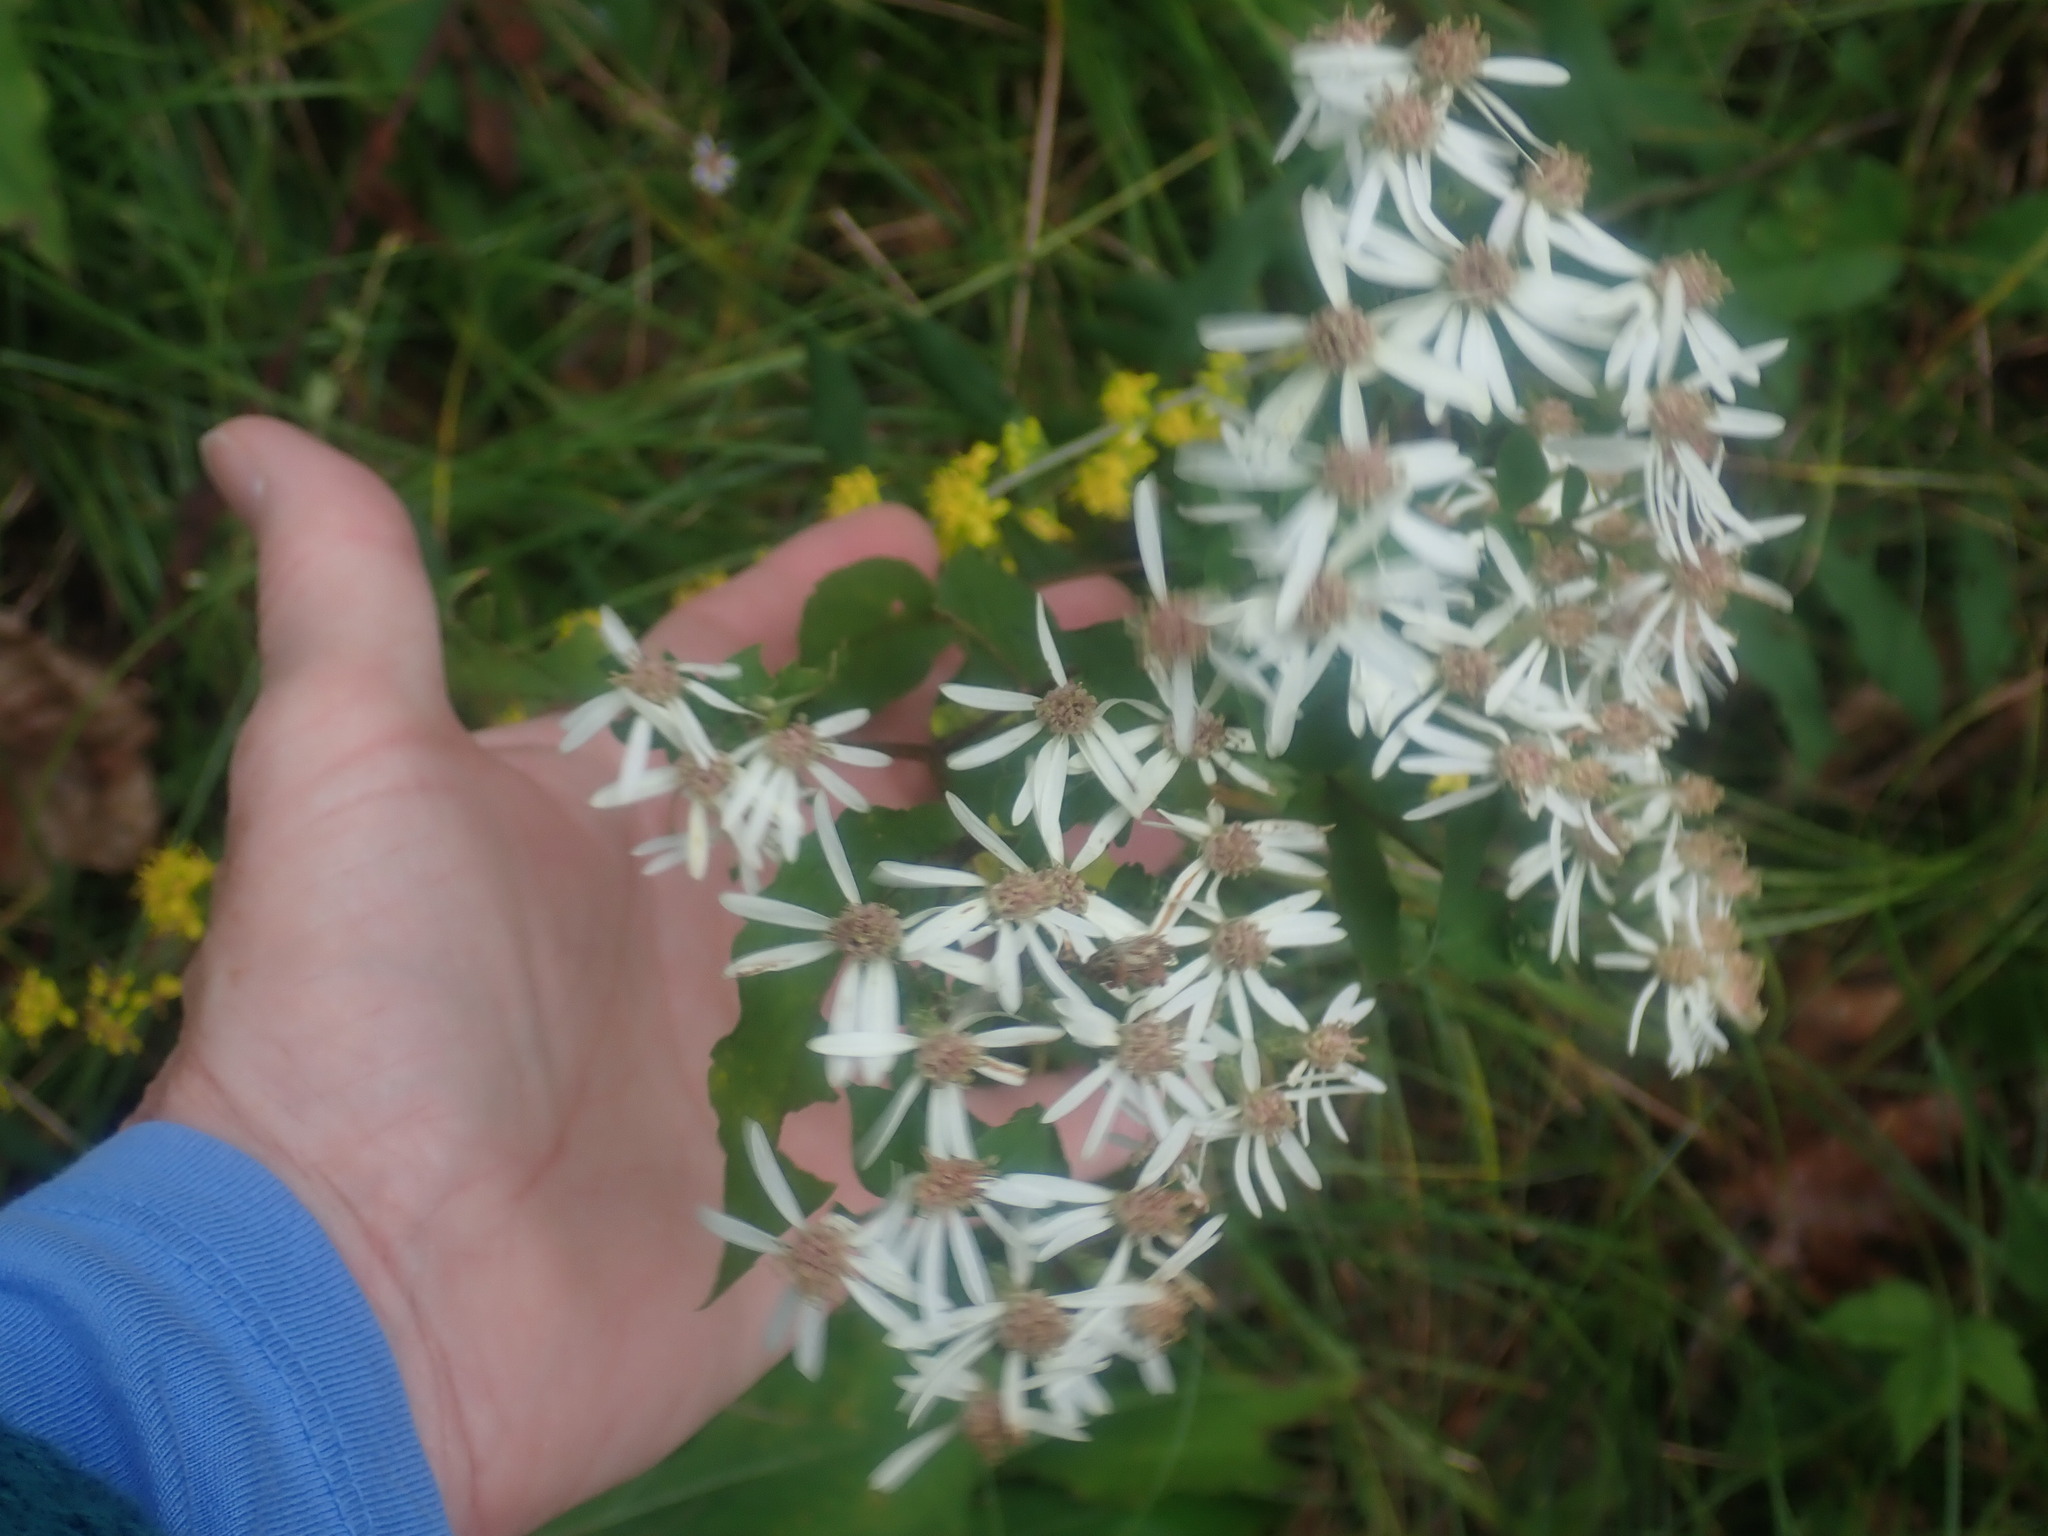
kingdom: Plantae
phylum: Tracheophyta
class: Magnoliopsida
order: Asterales
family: Asteraceae
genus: Eurybia
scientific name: Eurybia divaricata
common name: White wood aster
